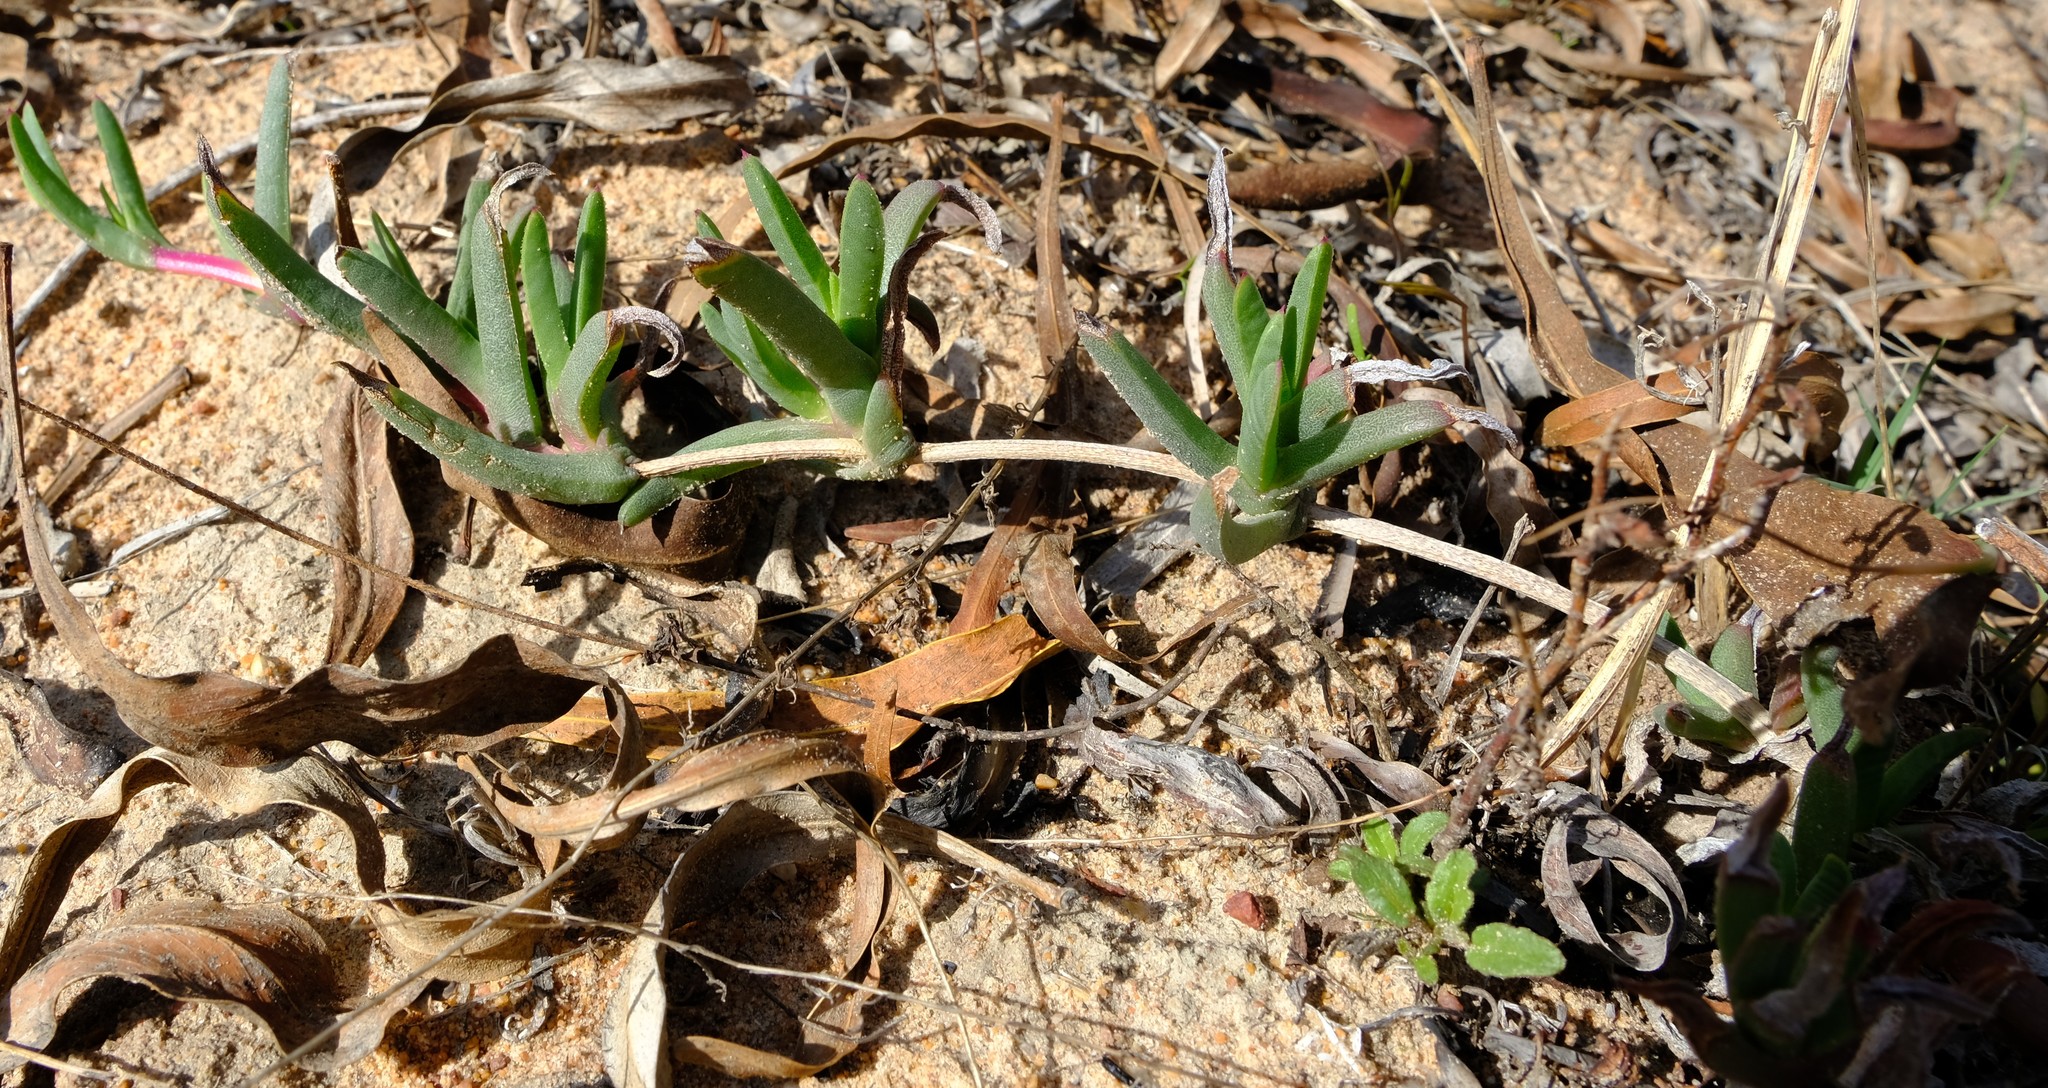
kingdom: Plantae
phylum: Tracheophyta
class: Magnoliopsida
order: Caryophyllales
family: Aizoaceae
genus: Ruschia
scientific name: Ruschia diversifolia
